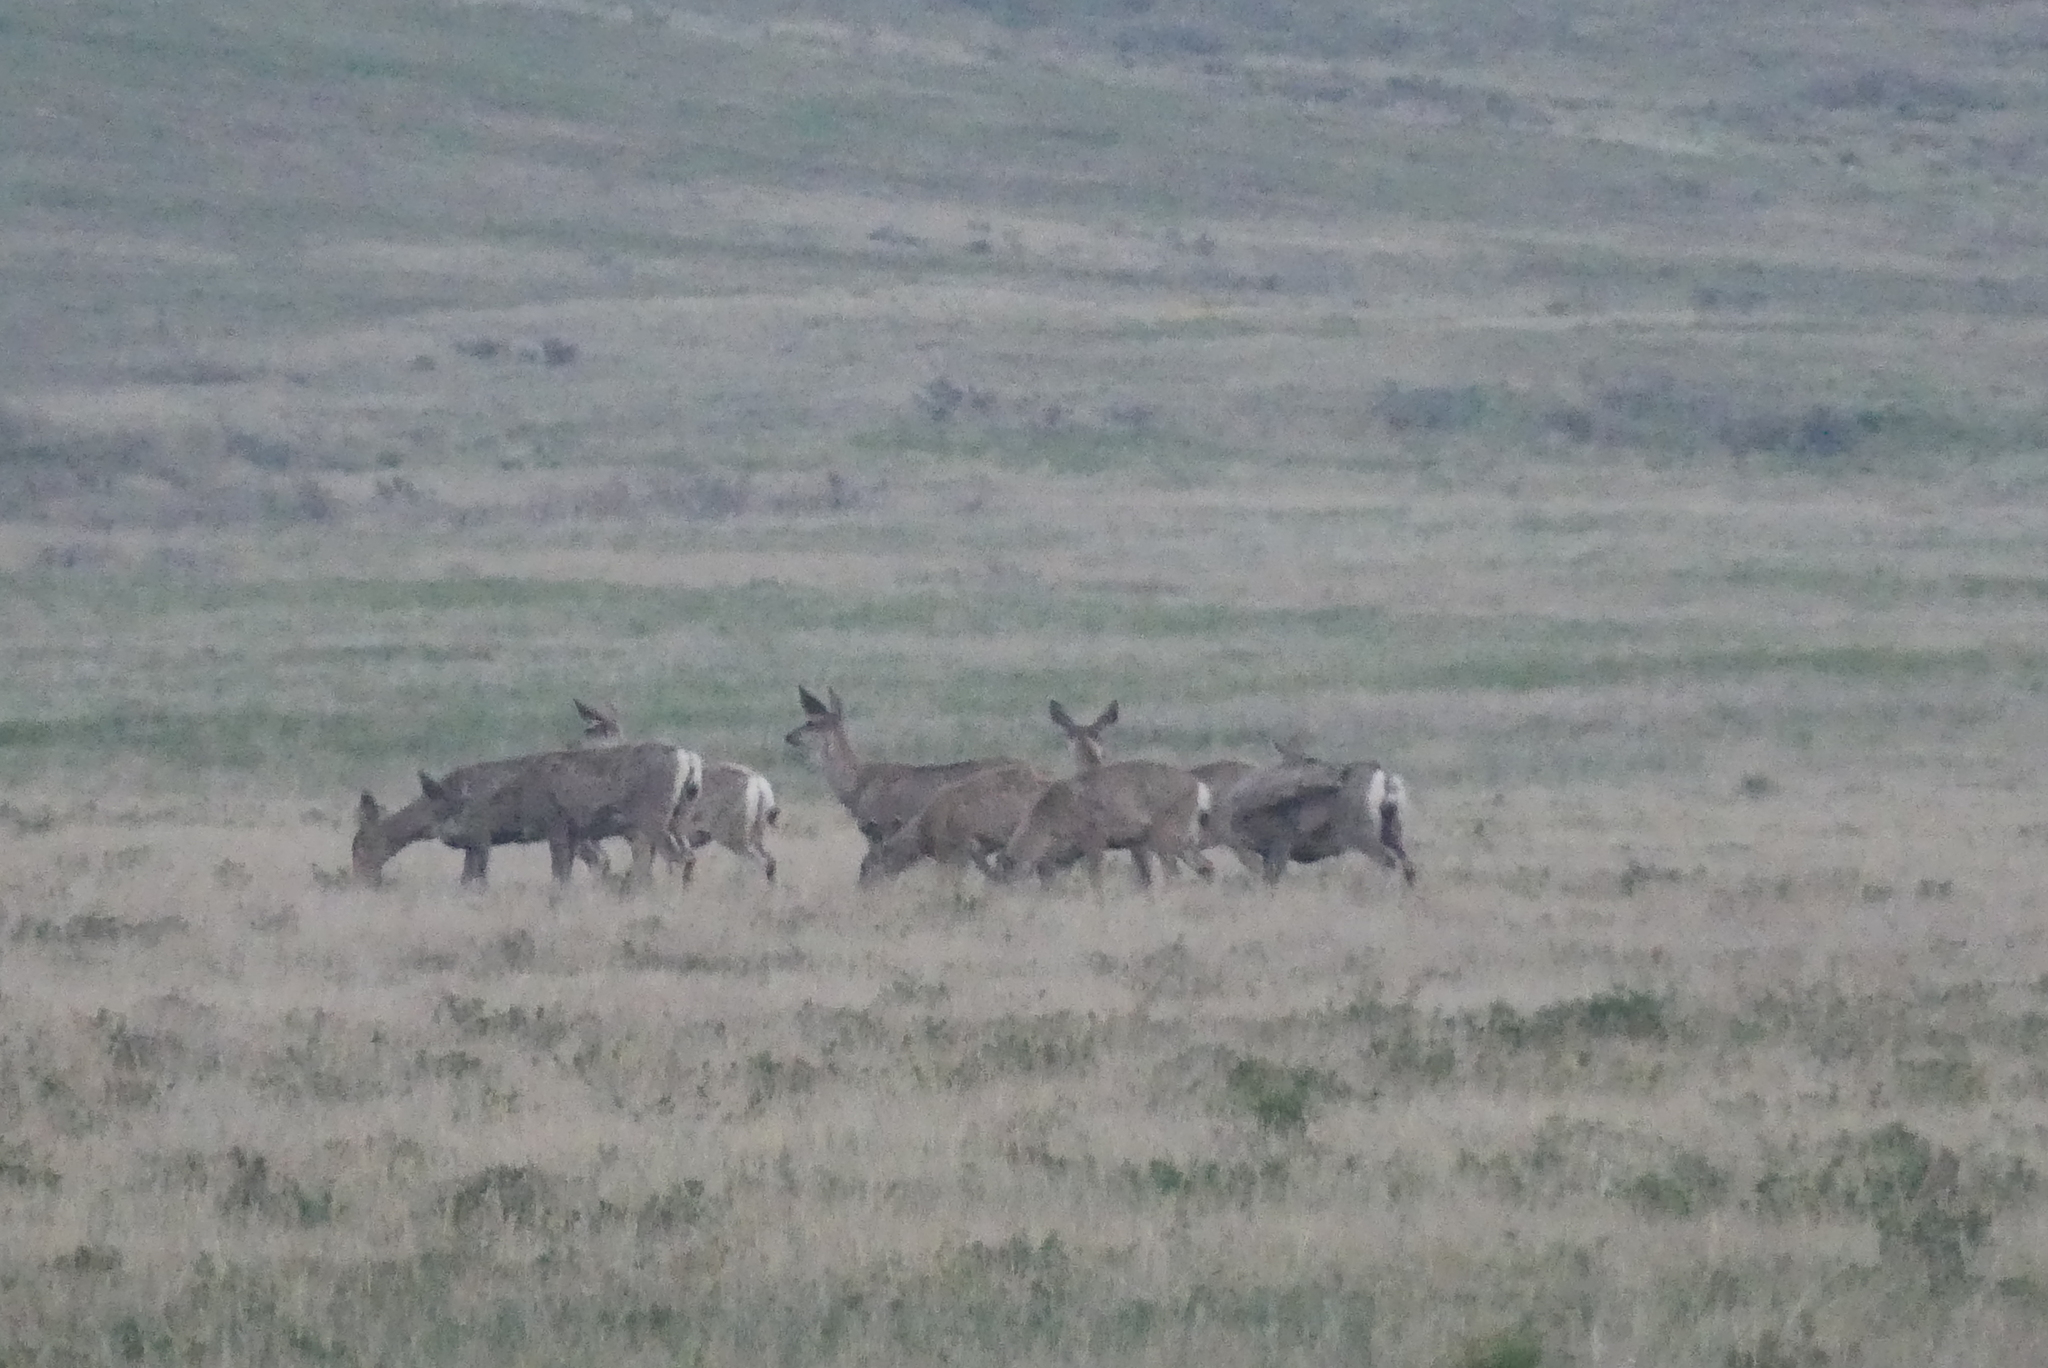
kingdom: Animalia
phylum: Chordata
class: Mammalia
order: Artiodactyla
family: Cervidae
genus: Odocoileus
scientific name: Odocoileus hemionus
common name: Mule deer
